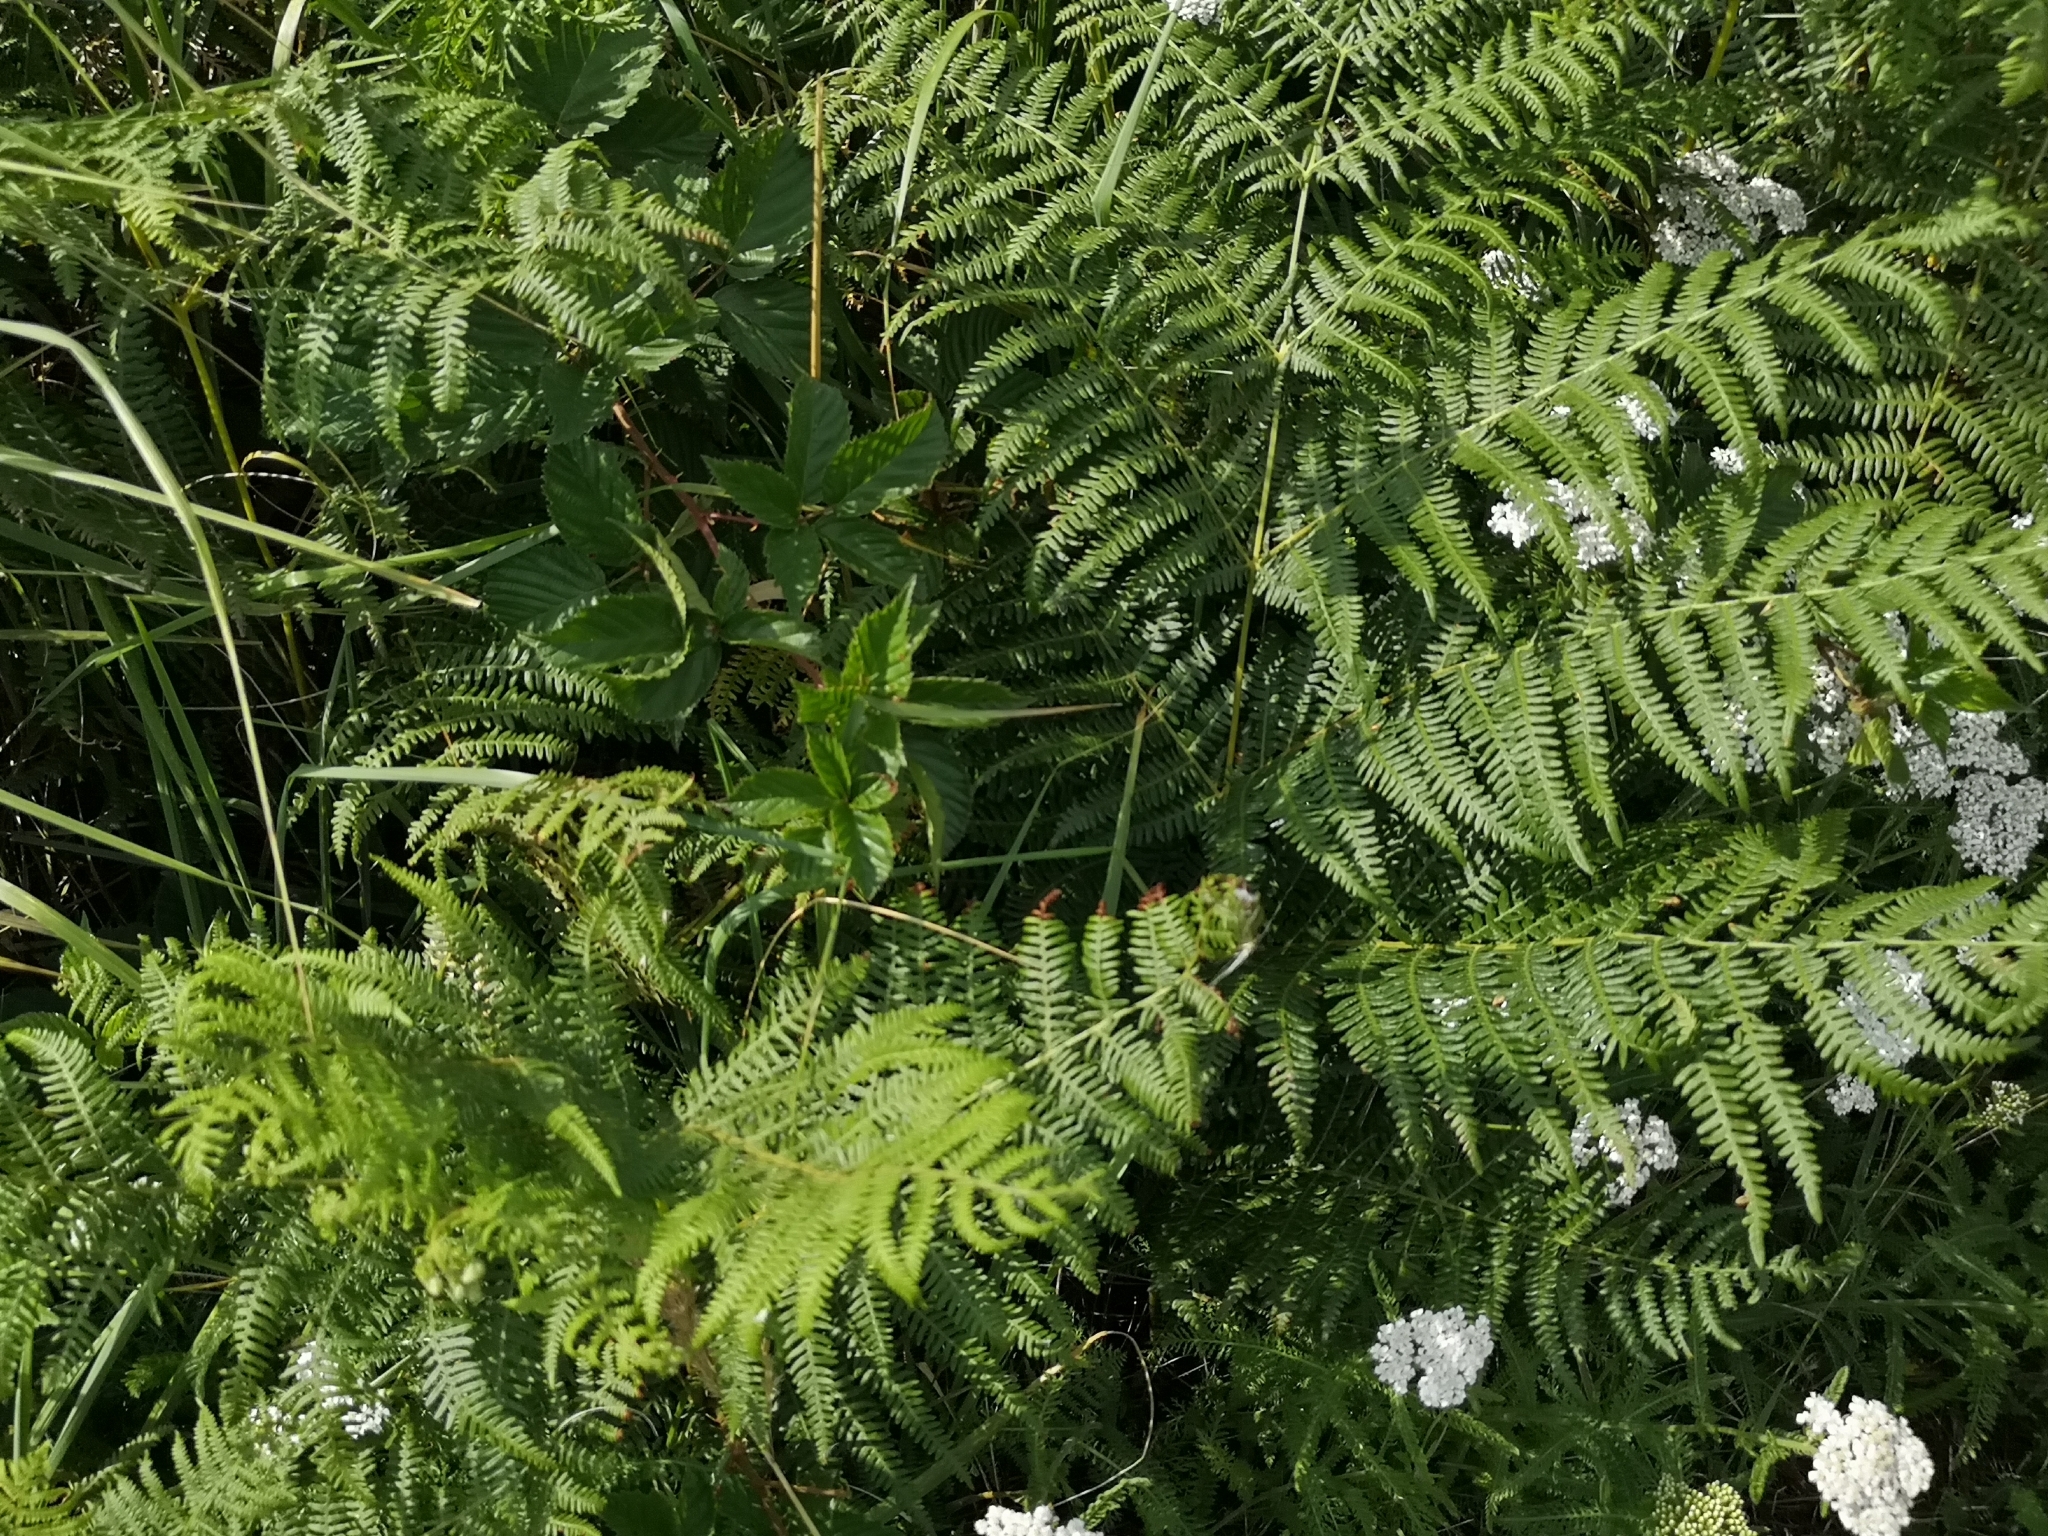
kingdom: Plantae
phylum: Tracheophyta
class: Polypodiopsida
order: Polypodiales
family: Dennstaedtiaceae
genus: Pteridium
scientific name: Pteridium aquilinum
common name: Bracken
